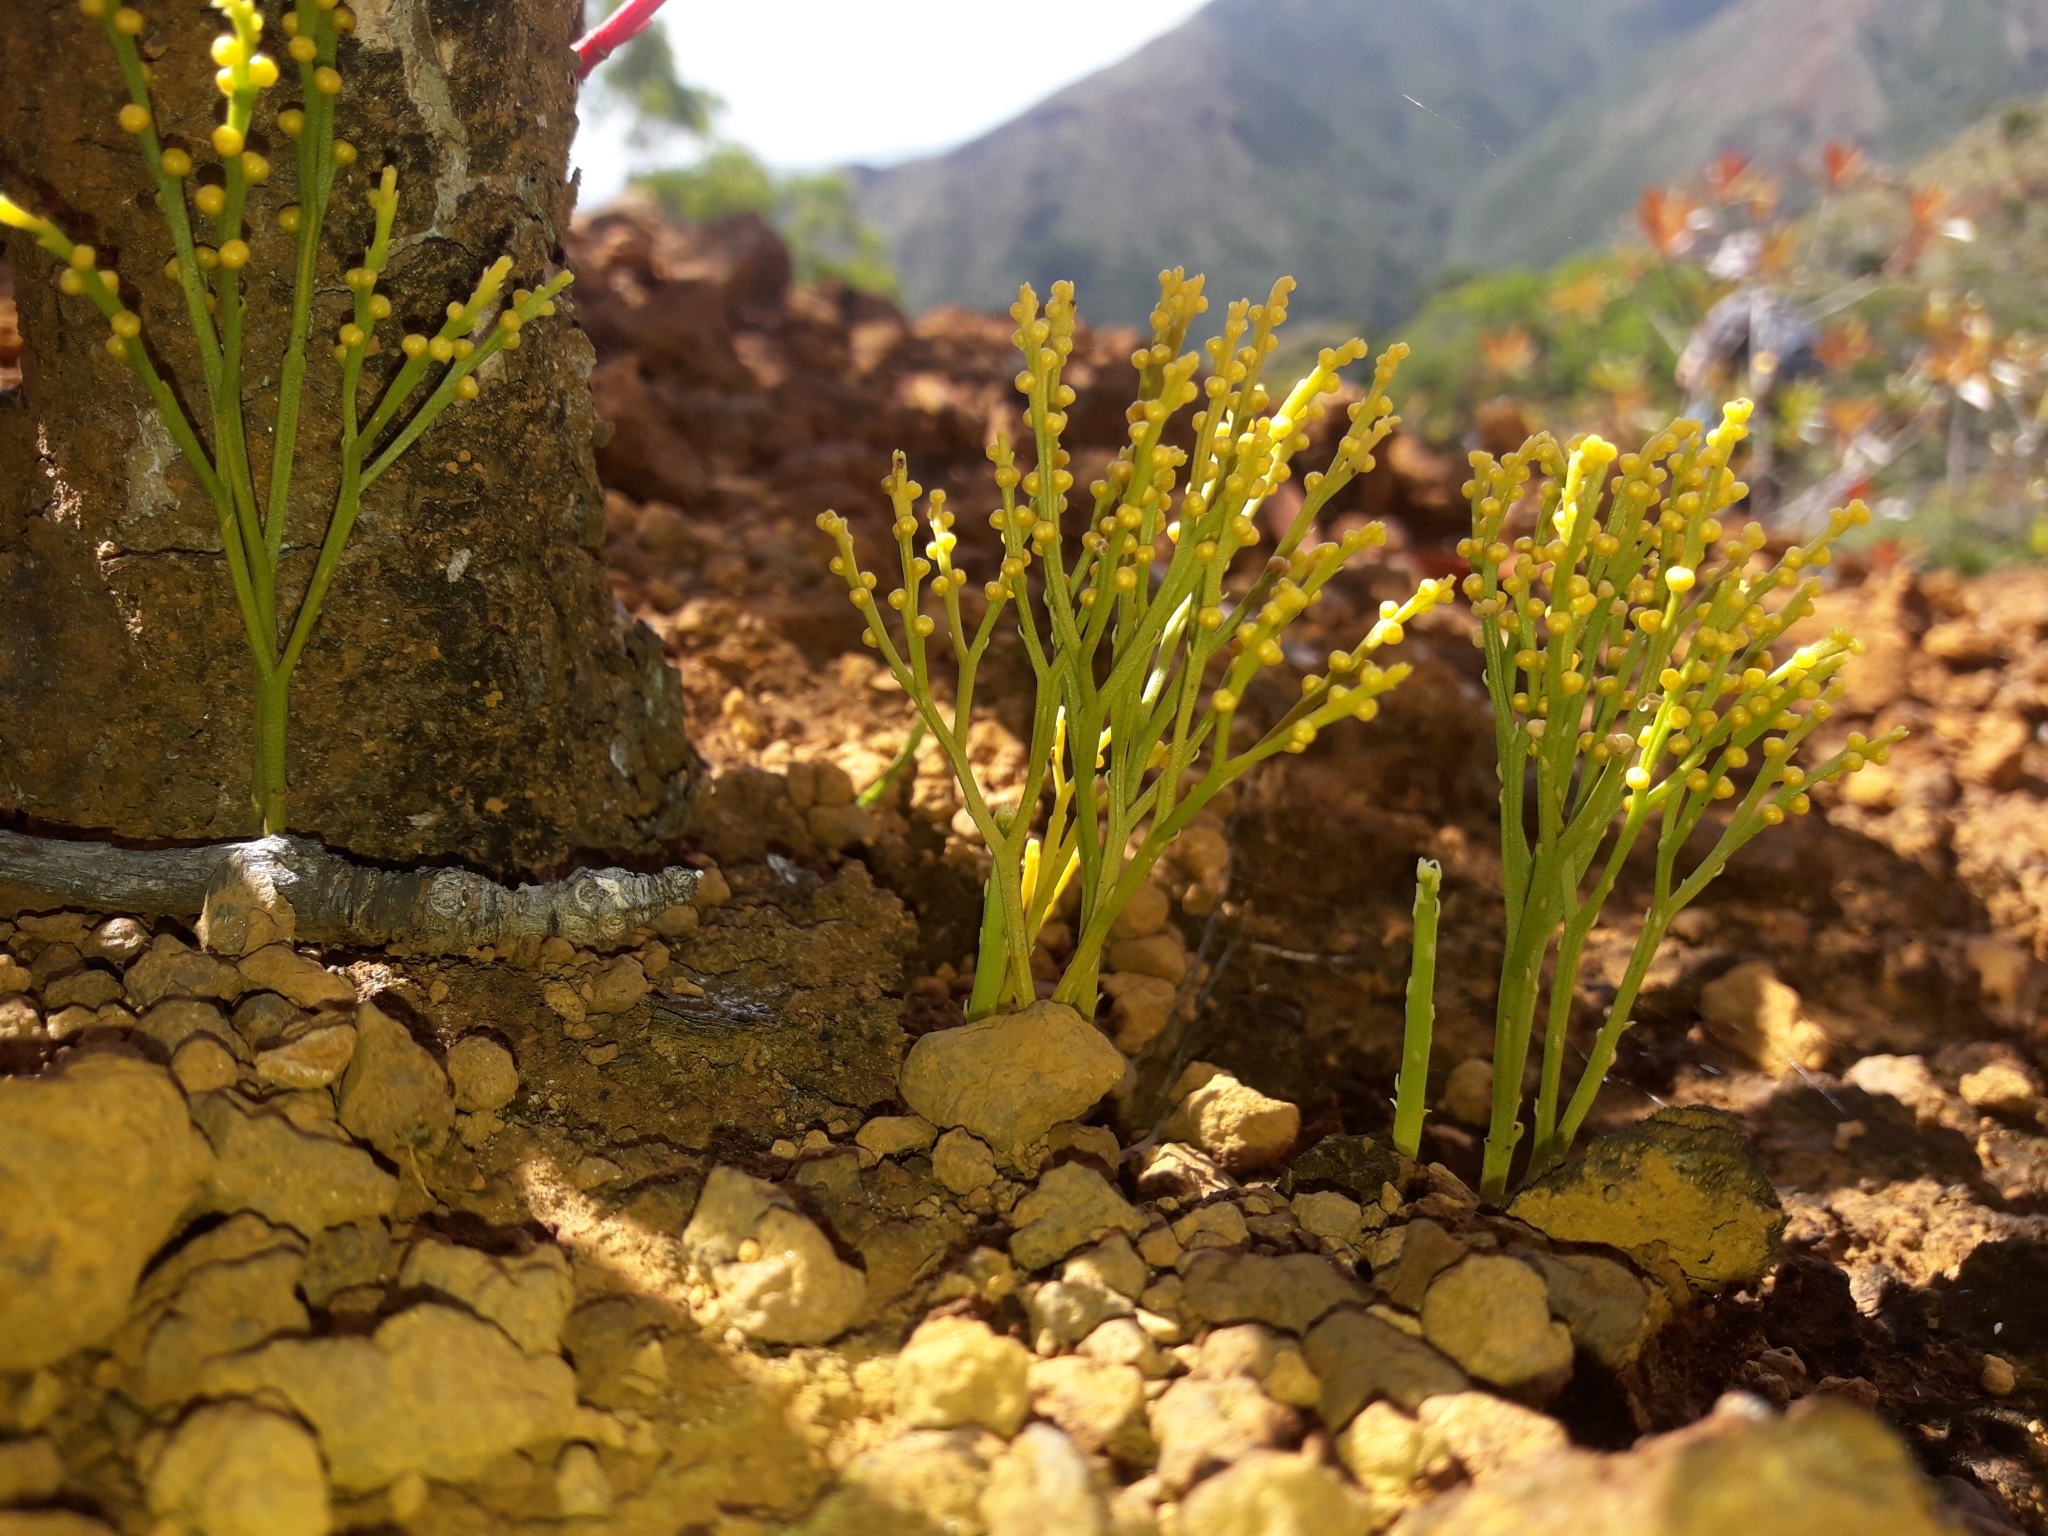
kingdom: Plantae
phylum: Tracheophyta
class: Polypodiopsida
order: Psilotales
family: Psilotaceae
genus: Psilotum
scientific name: Psilotum nudum
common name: Skeleton fork fern
